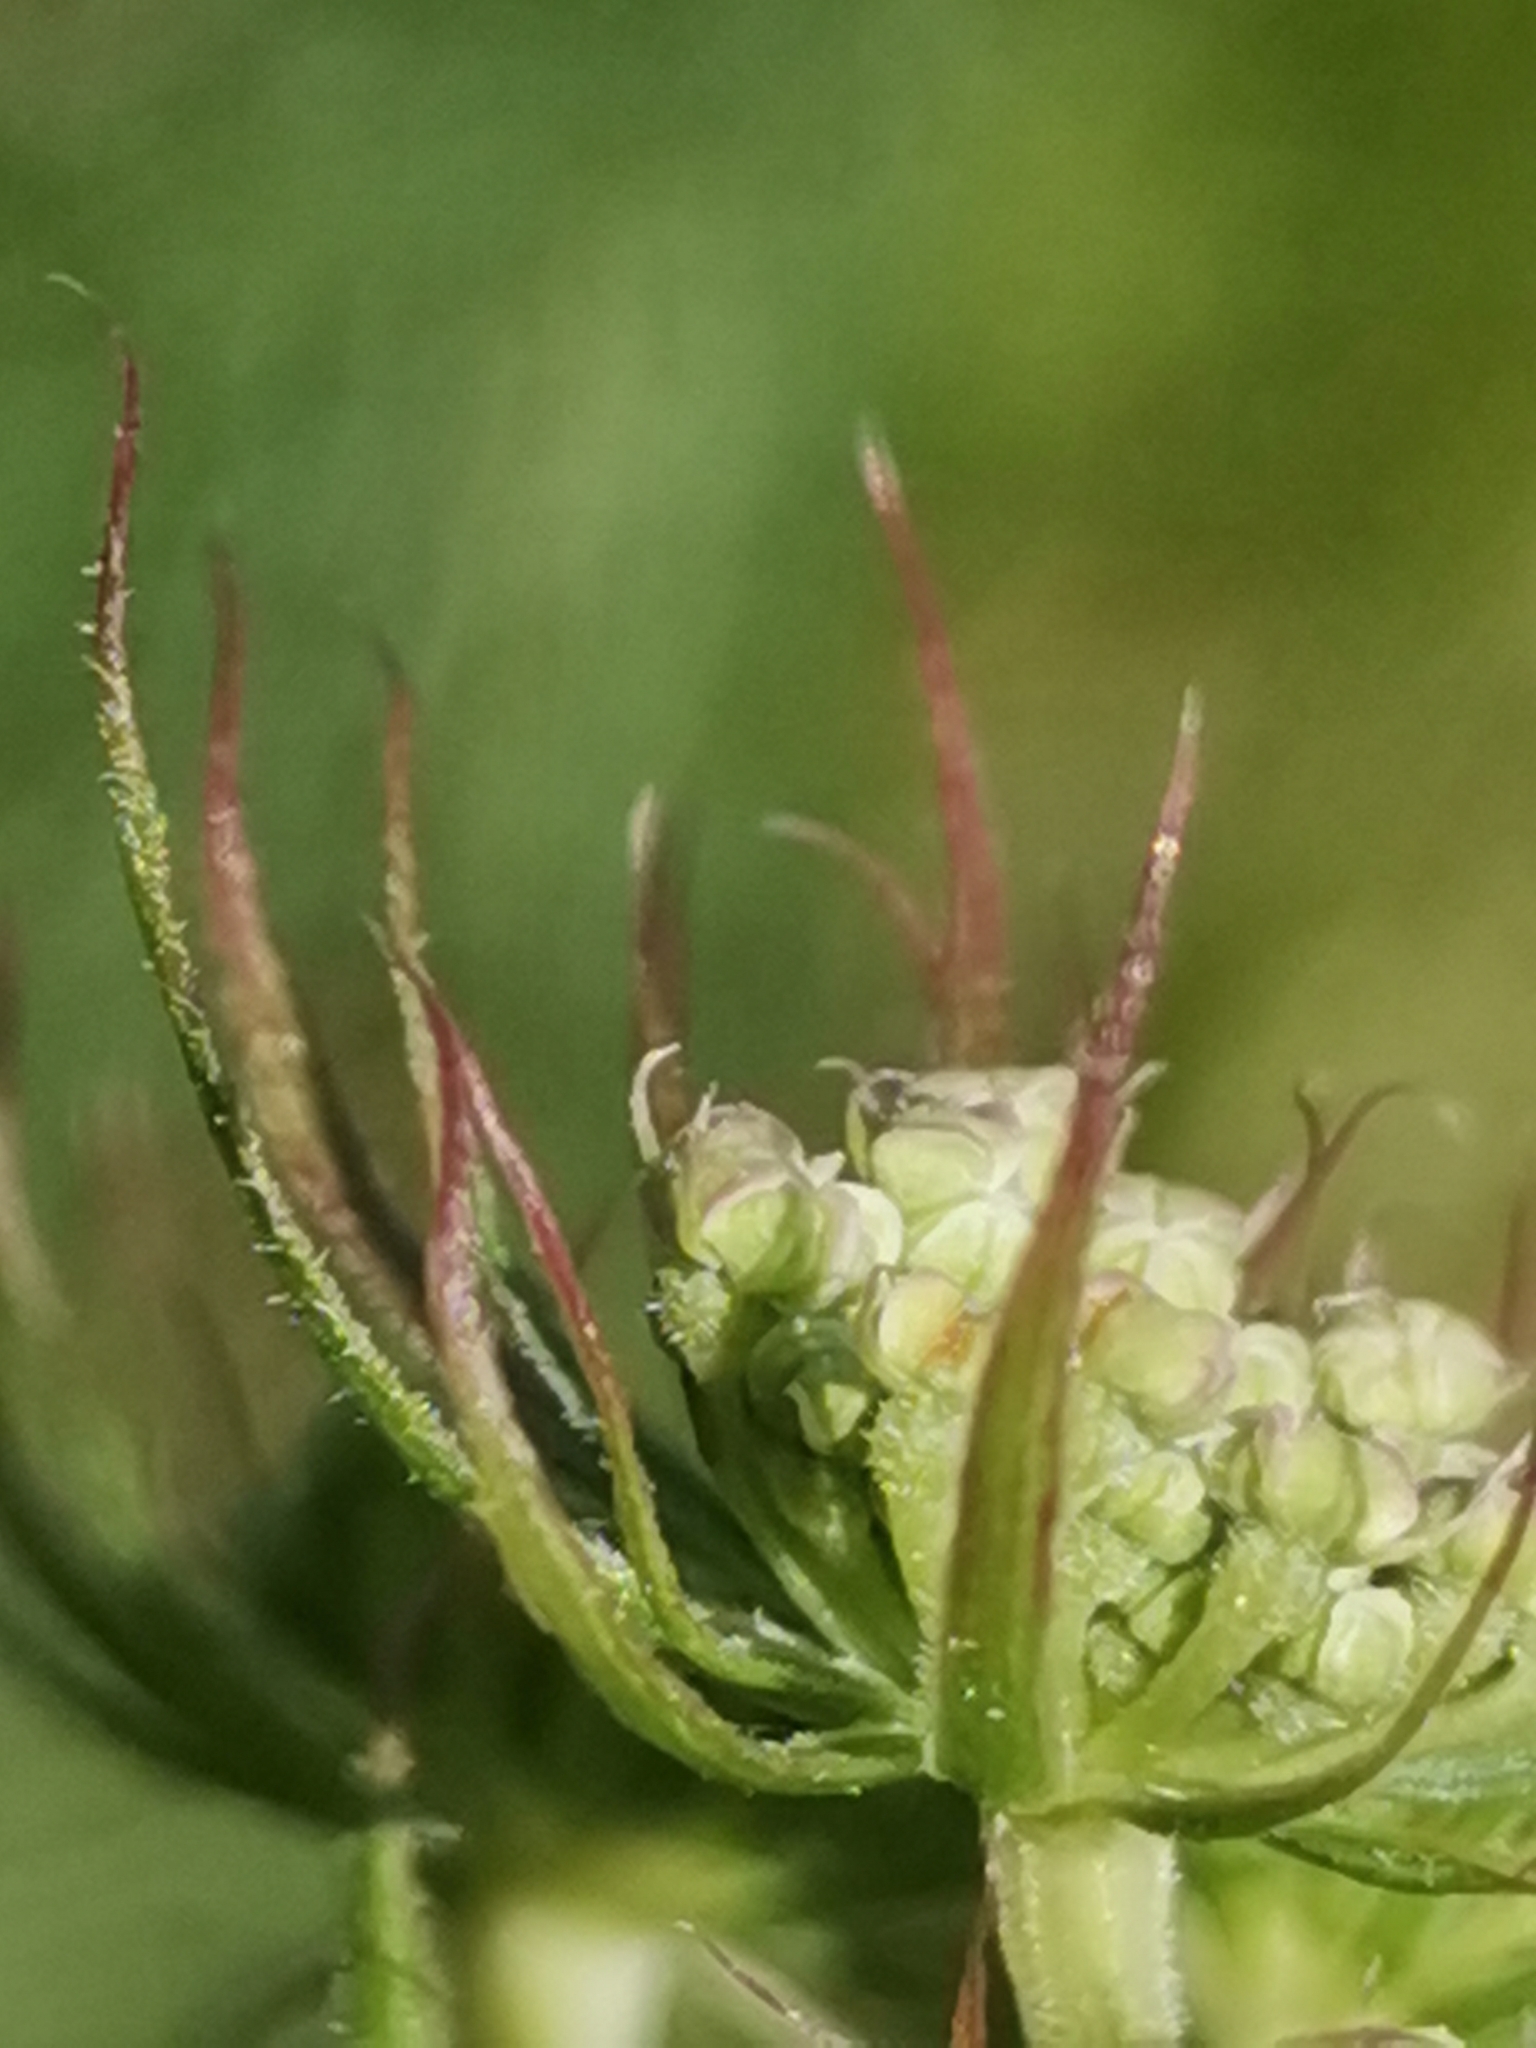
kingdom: Plantae
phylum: Tracheophyta
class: Magnoliopsida
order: Apiales
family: Apiaceae
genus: Seseli
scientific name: Seseli libanotis
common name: Mooncarrot
